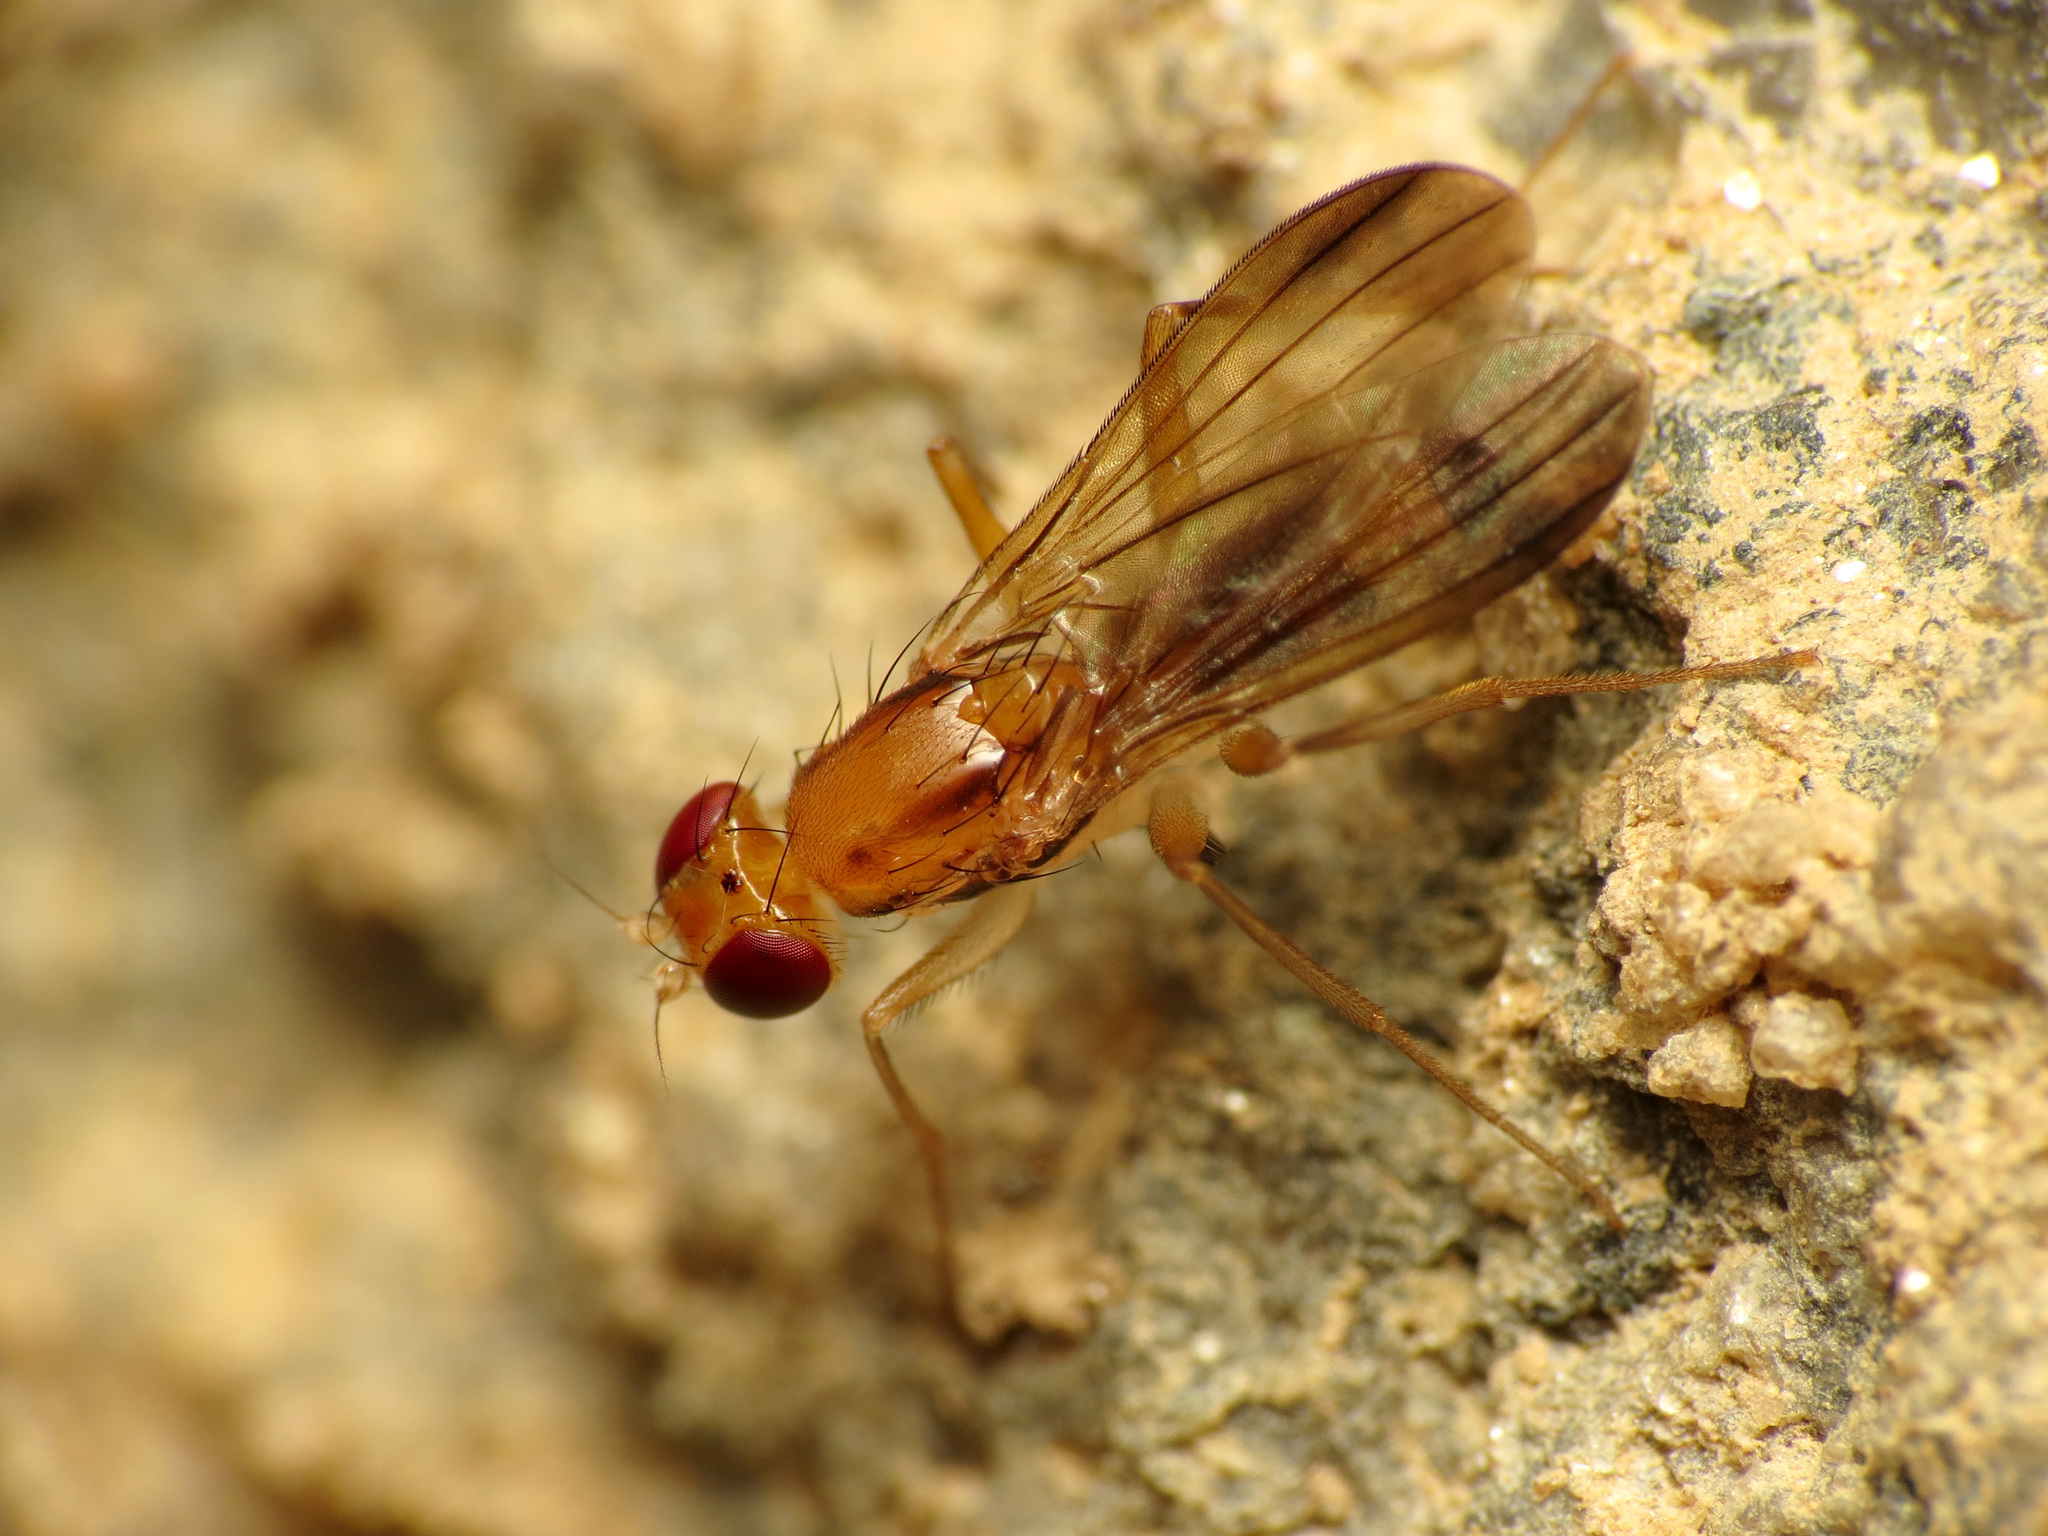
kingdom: Animalia
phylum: Arthropoda
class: Insecta
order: Diptera
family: Clusiidae
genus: Clusia
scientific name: Clusia lateralis
